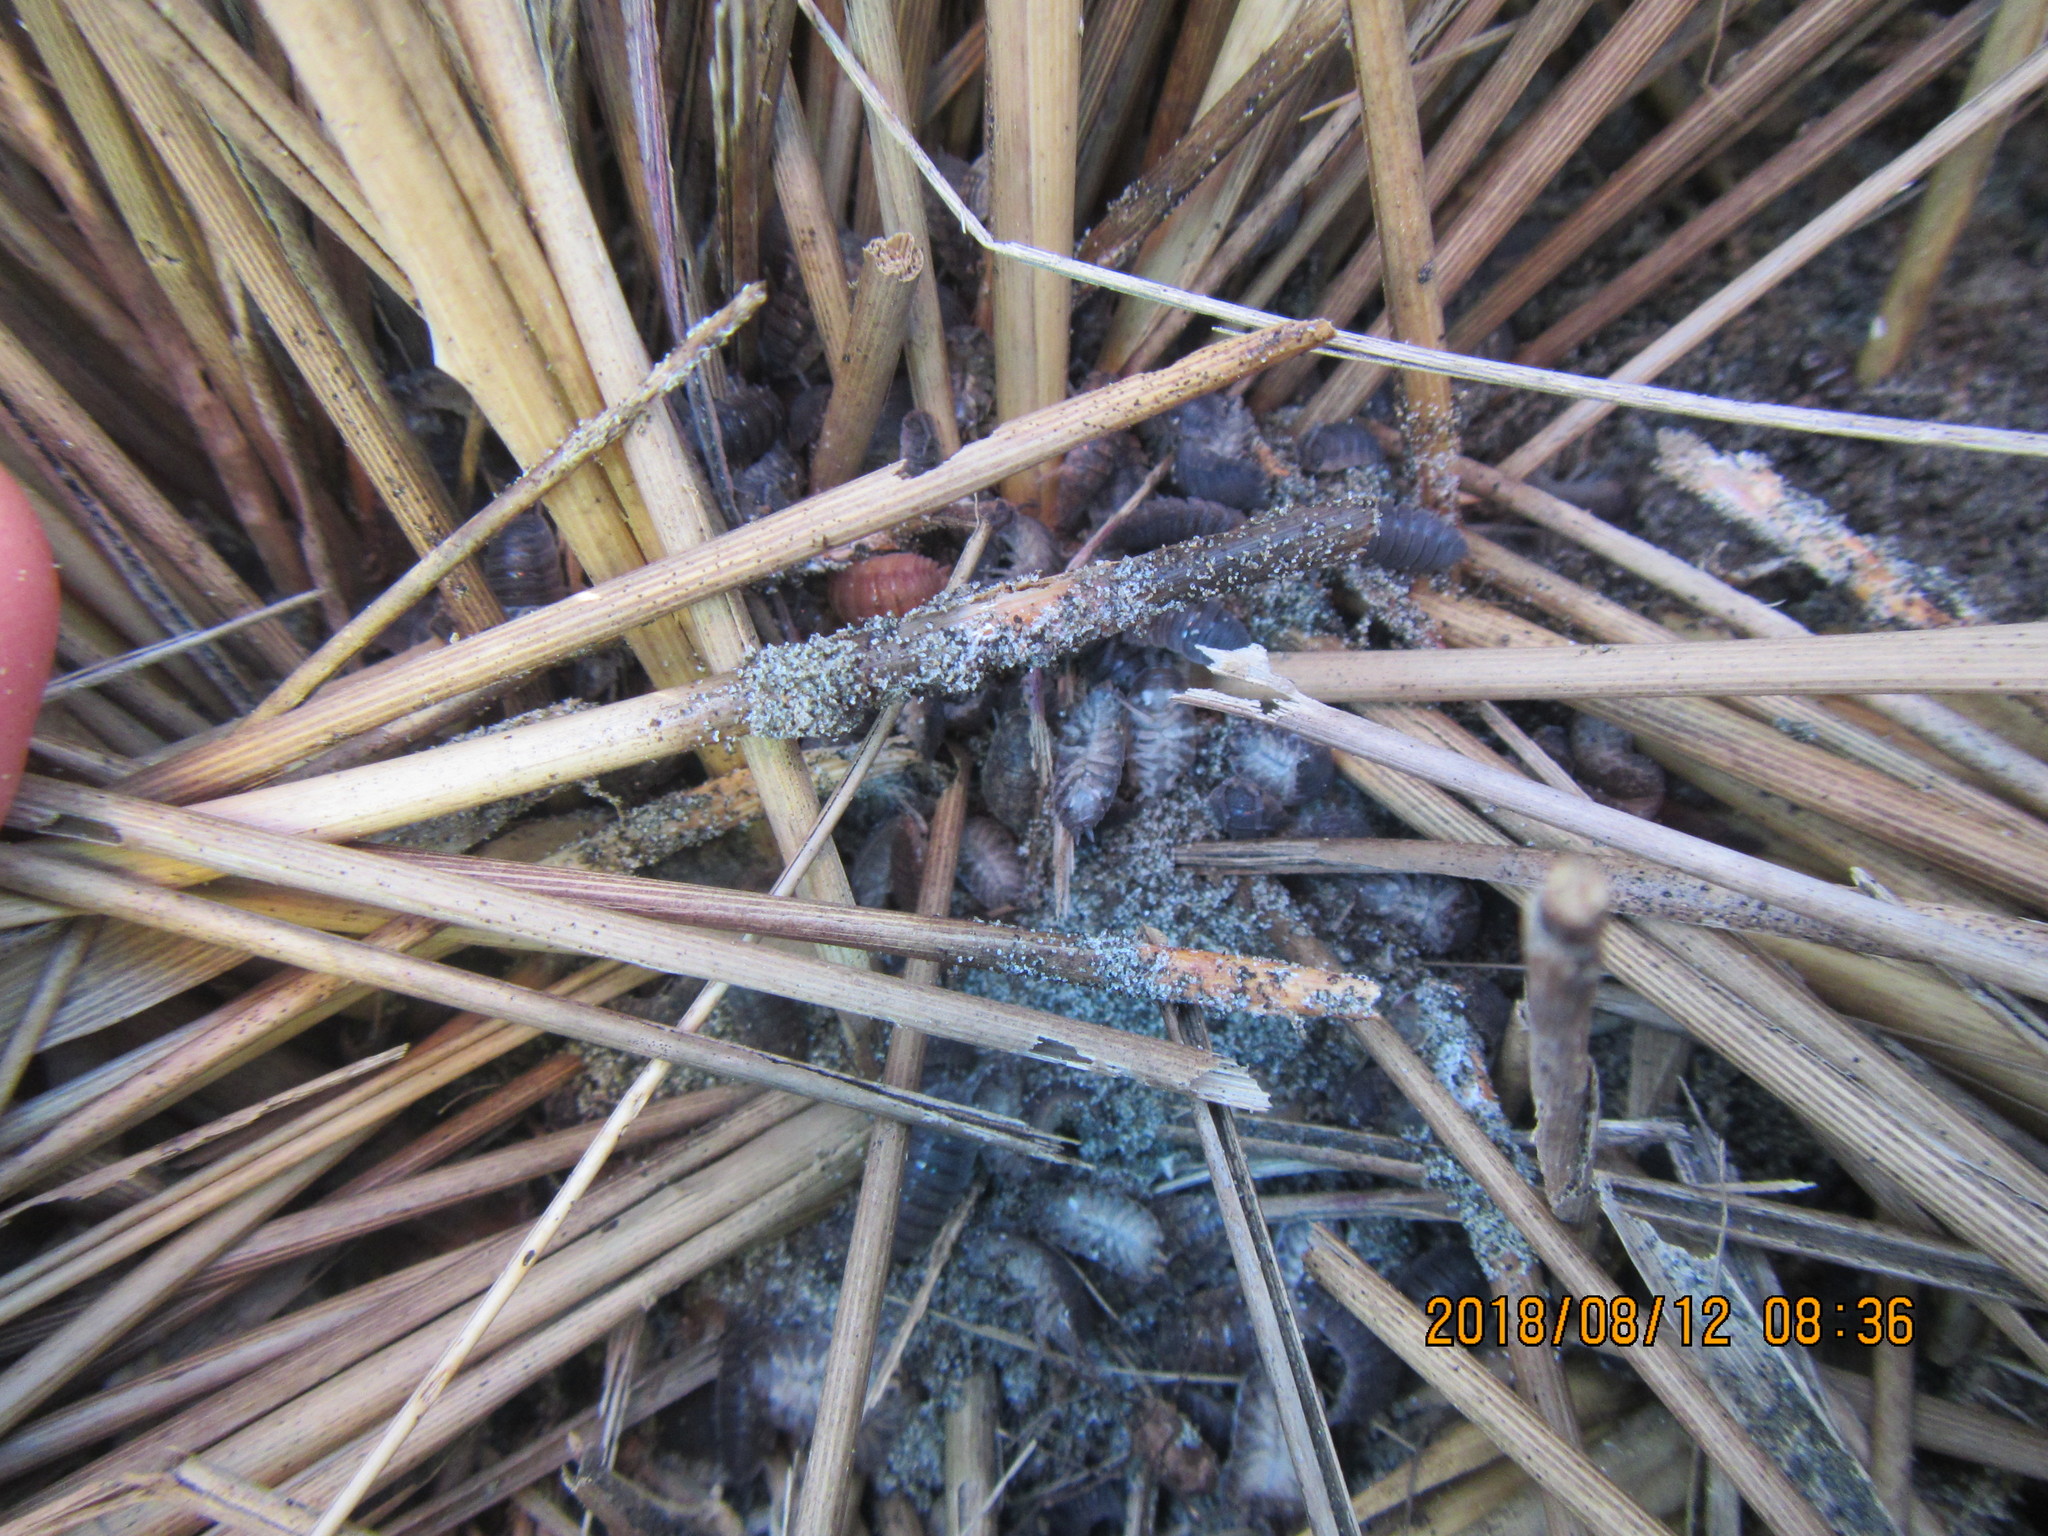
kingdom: Animalia
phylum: Arthropoda
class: Malacostraca
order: Isopoda
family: Porcellionidae
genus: Porcellio
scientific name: Porcellio scaber
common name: Common rough woodlouse
